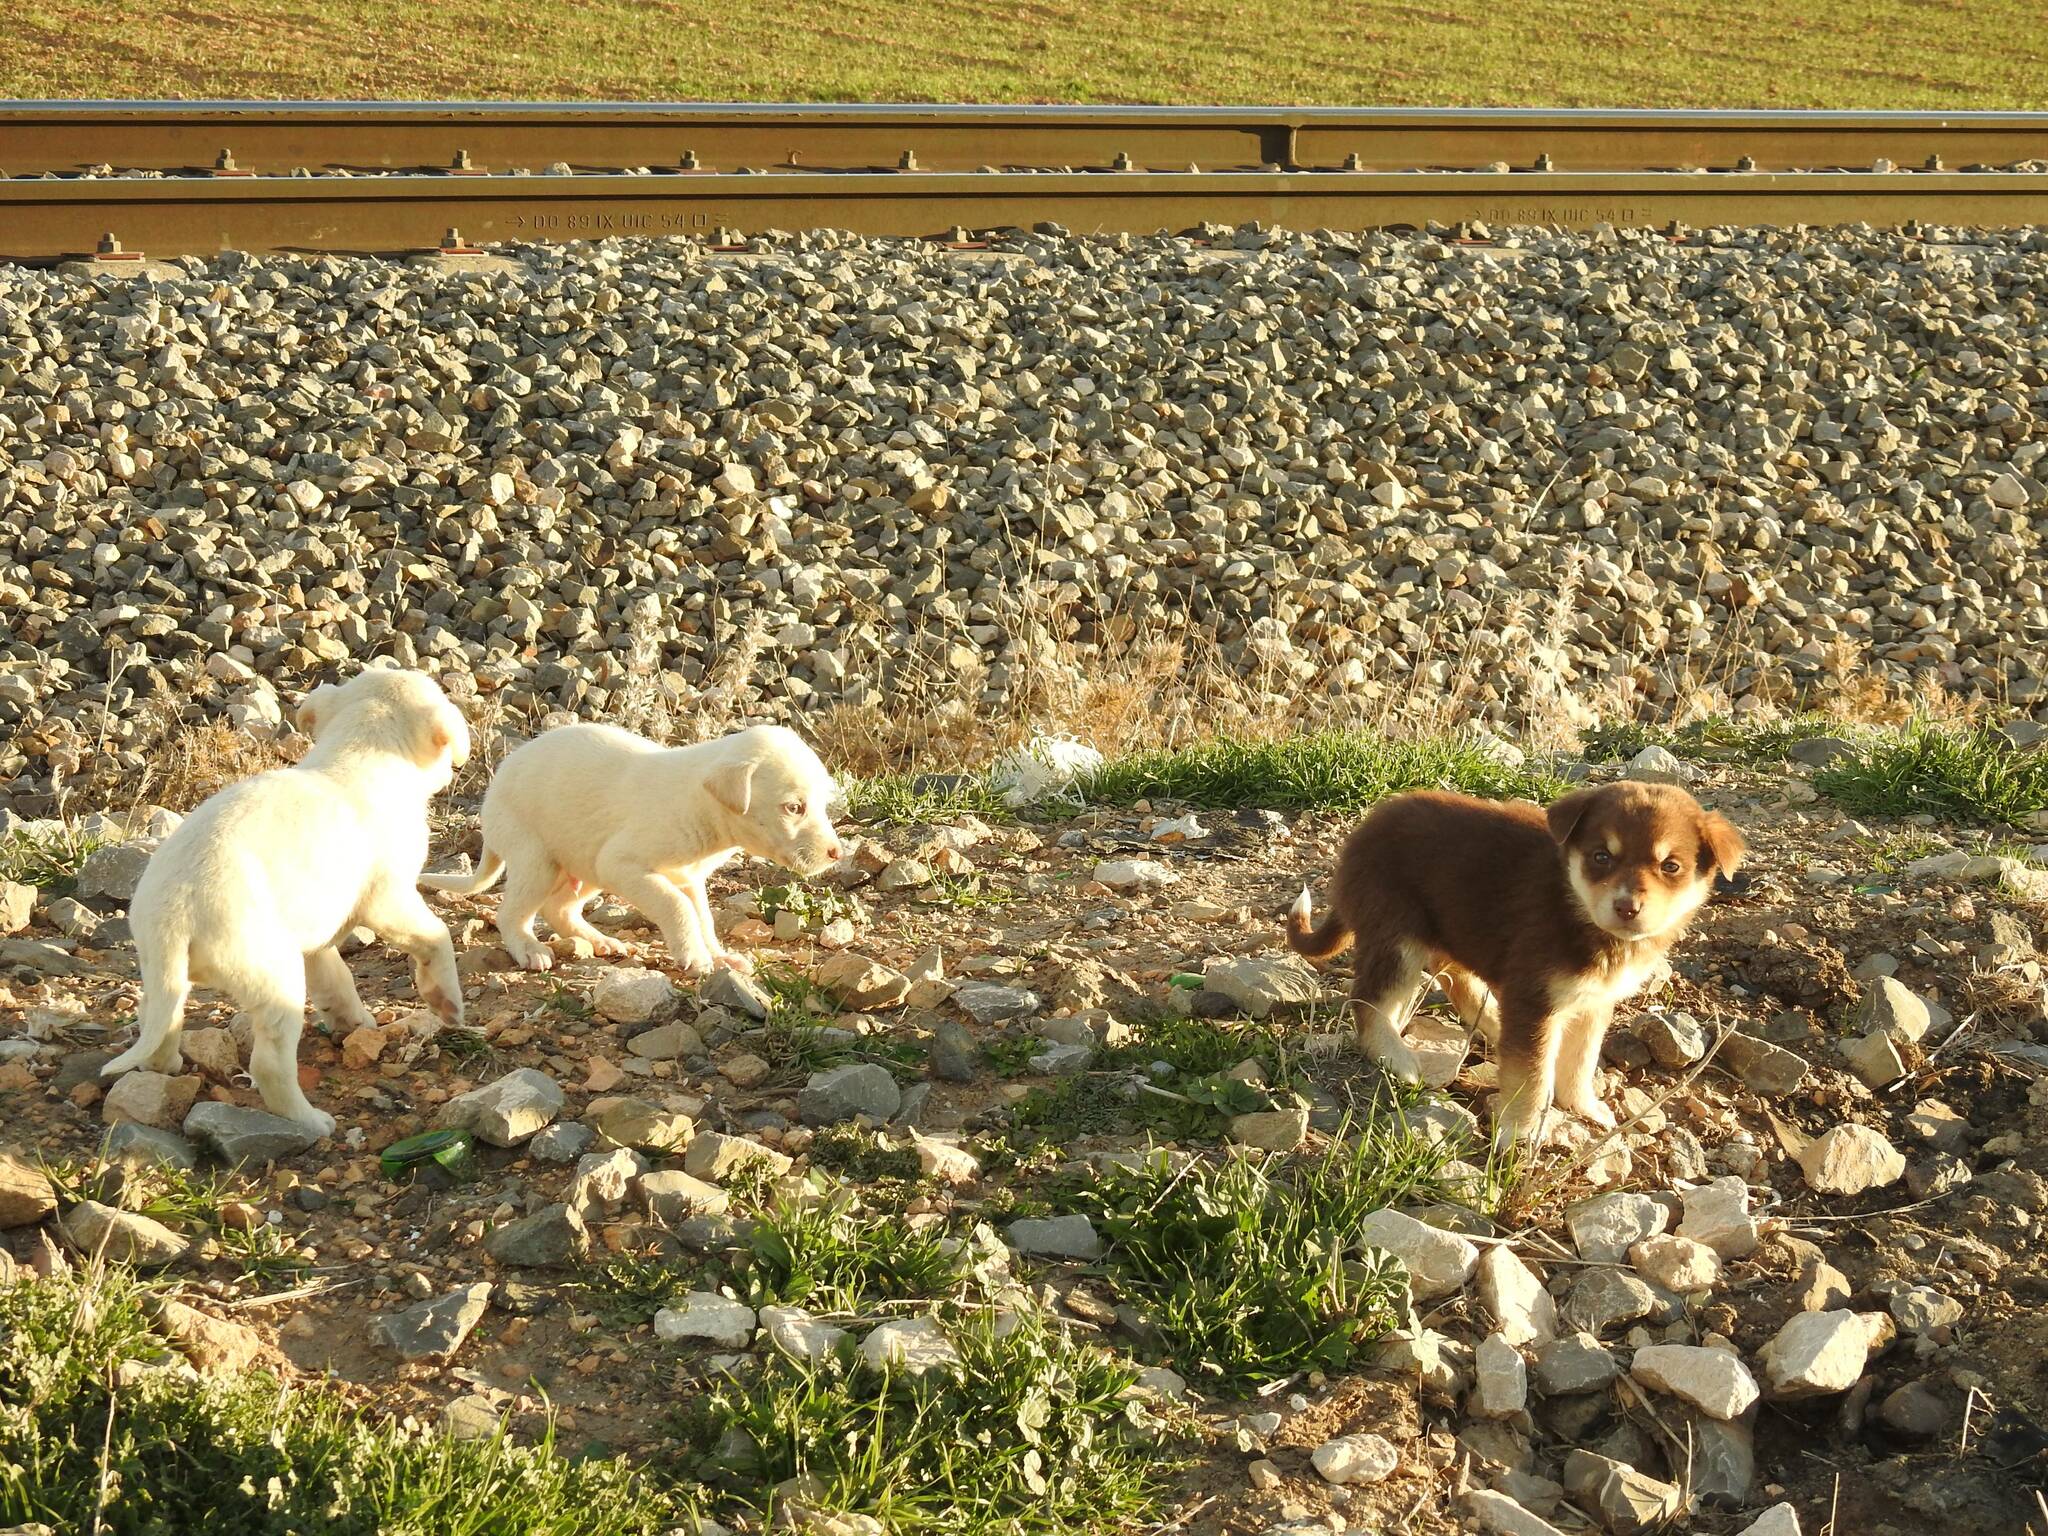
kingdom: Animalia
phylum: Chordata
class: Mammalia
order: Carnivora
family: Canidae
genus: Canis
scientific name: Canis lupus
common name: Gray wolf
